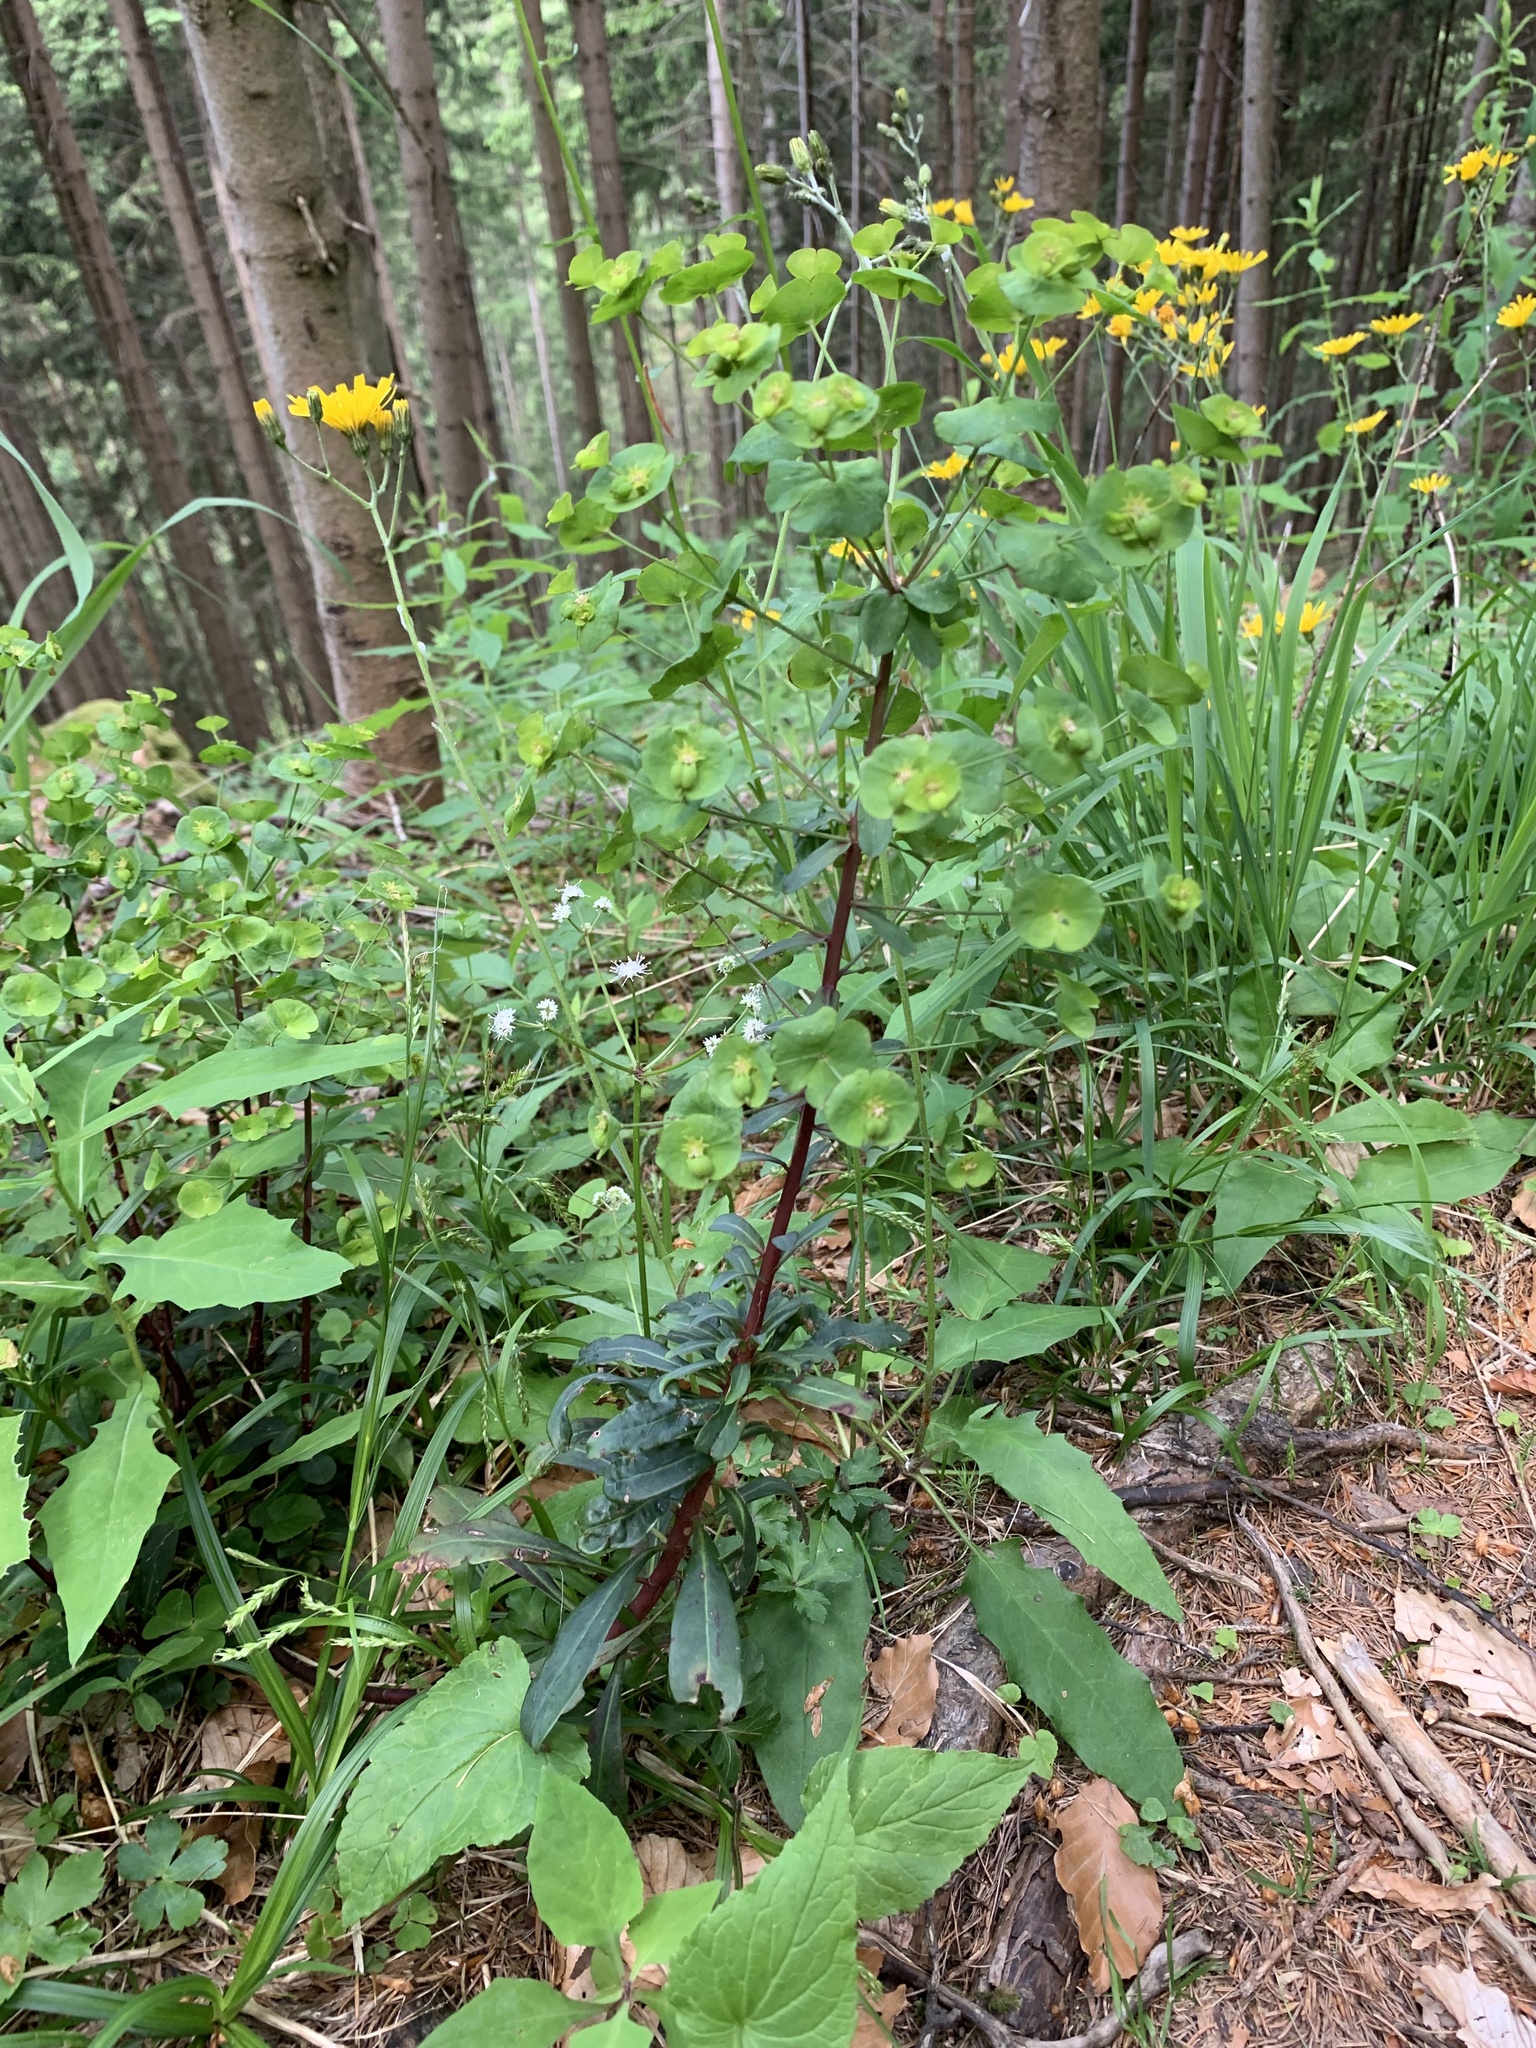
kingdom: Plantae
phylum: Tracheophyta
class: Magnoliopsida
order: Malpighiales
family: Euphorbiaceae
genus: Euphorbia
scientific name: Euphorbia amygdaloides
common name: Wood spurge
